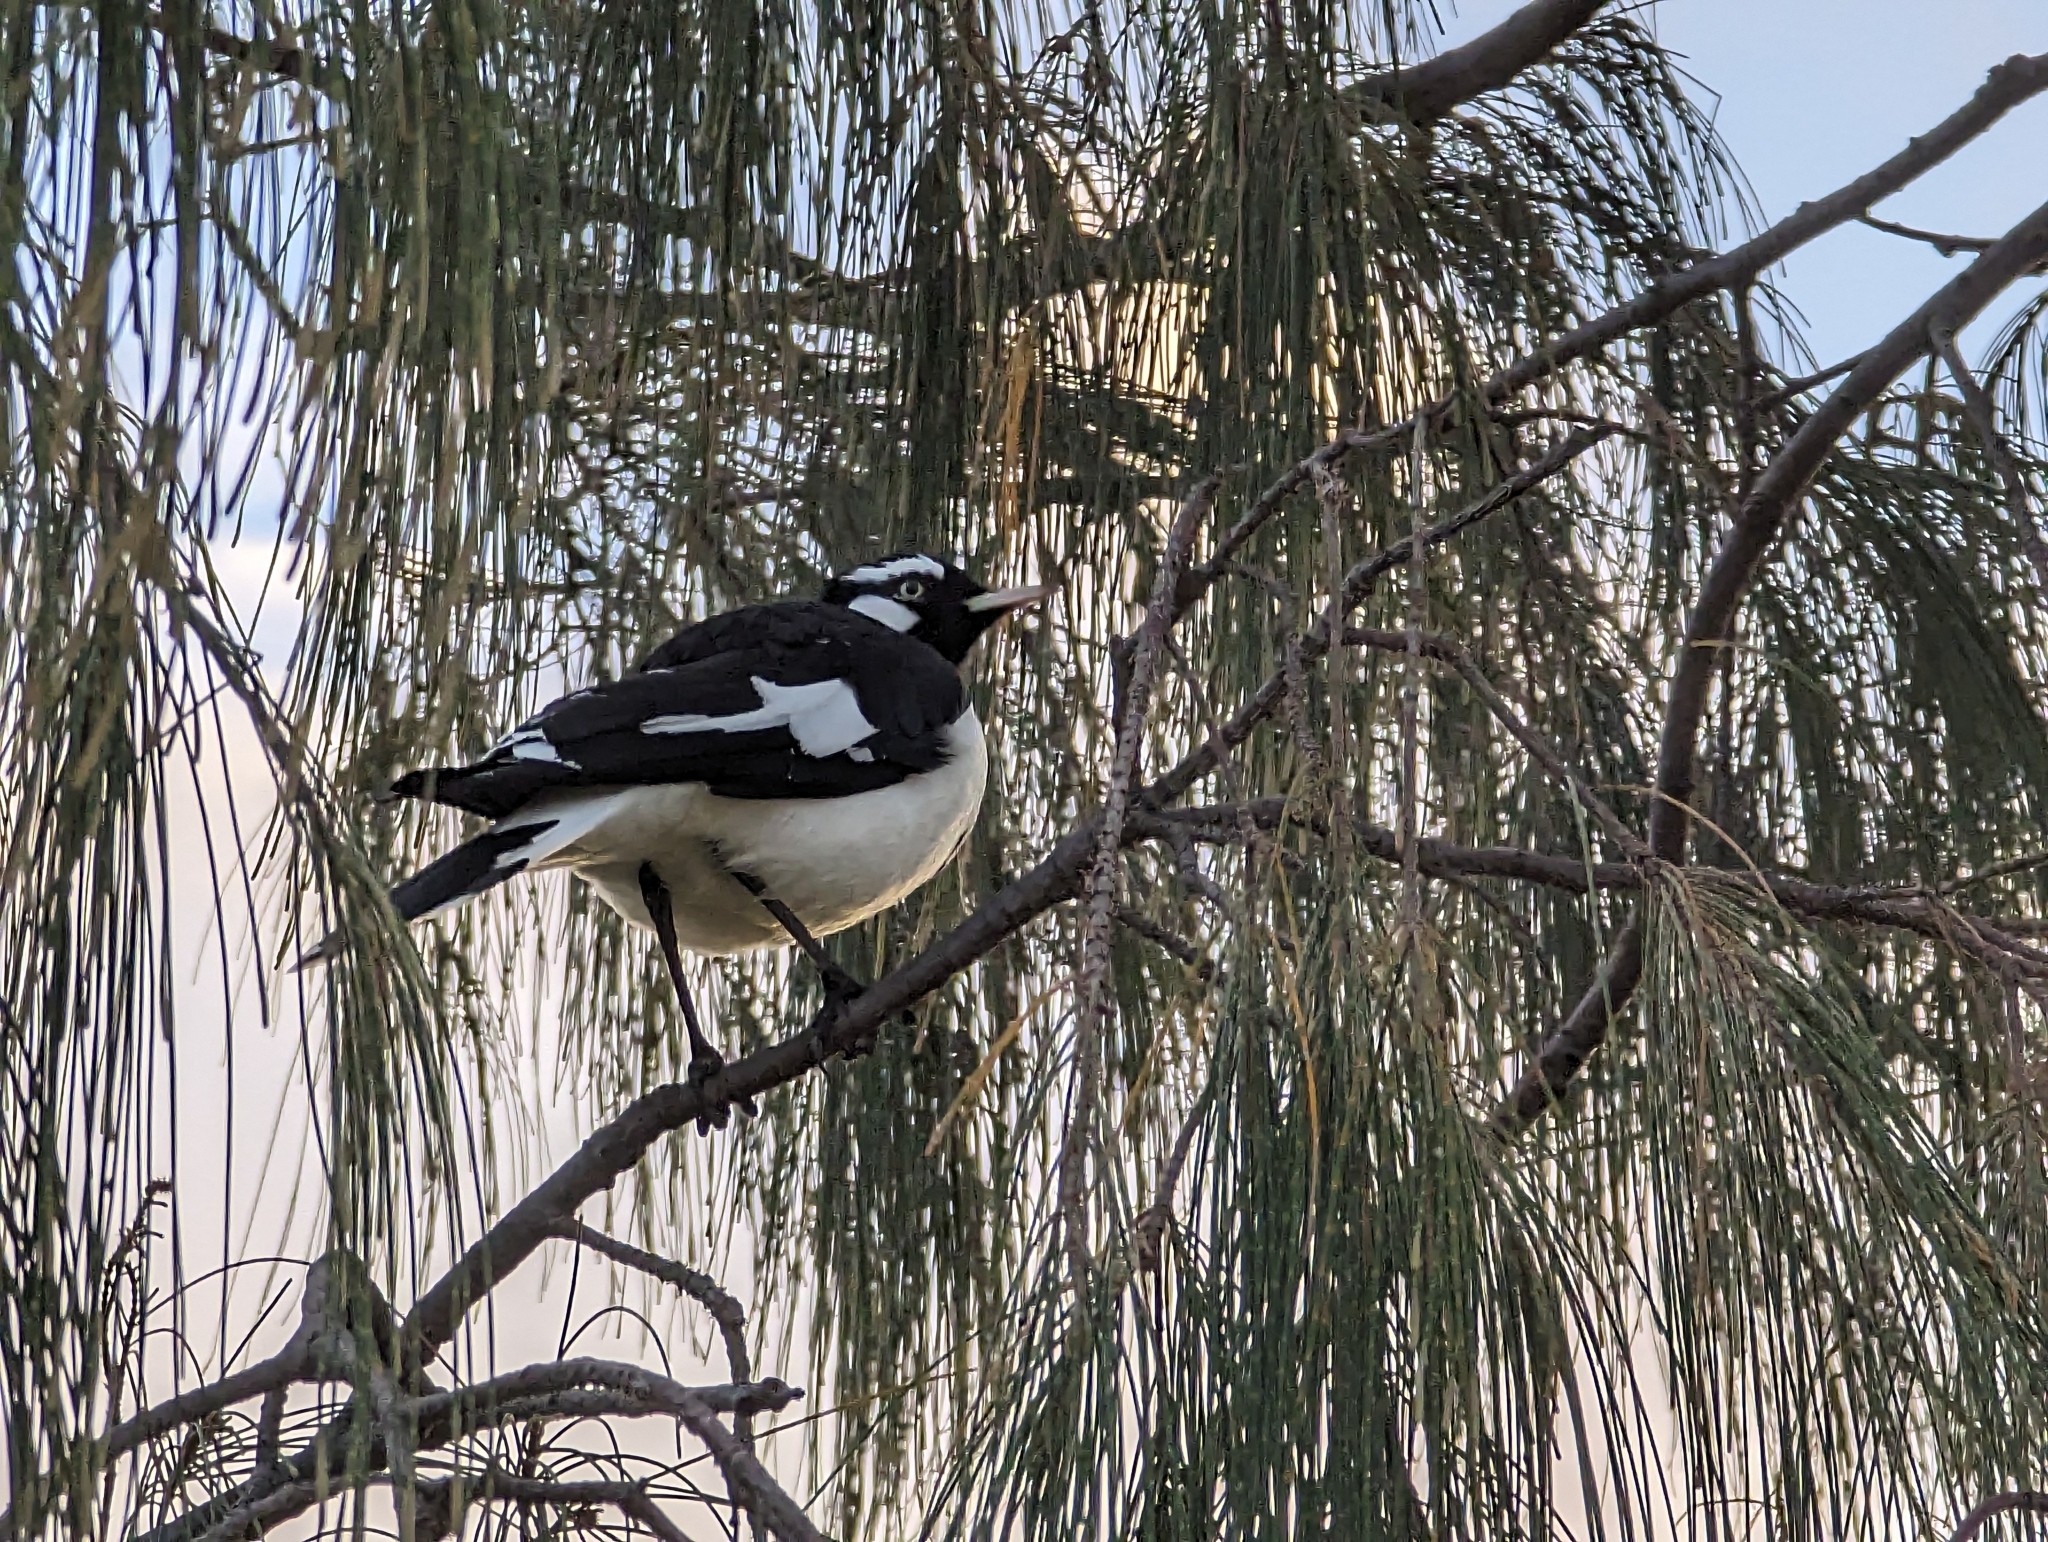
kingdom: Animalia
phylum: Chordata
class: Aves
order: Passeriformes
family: Monarchidae
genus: Grallina
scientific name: Grallina cyanoleuca
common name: Magpie-lark
